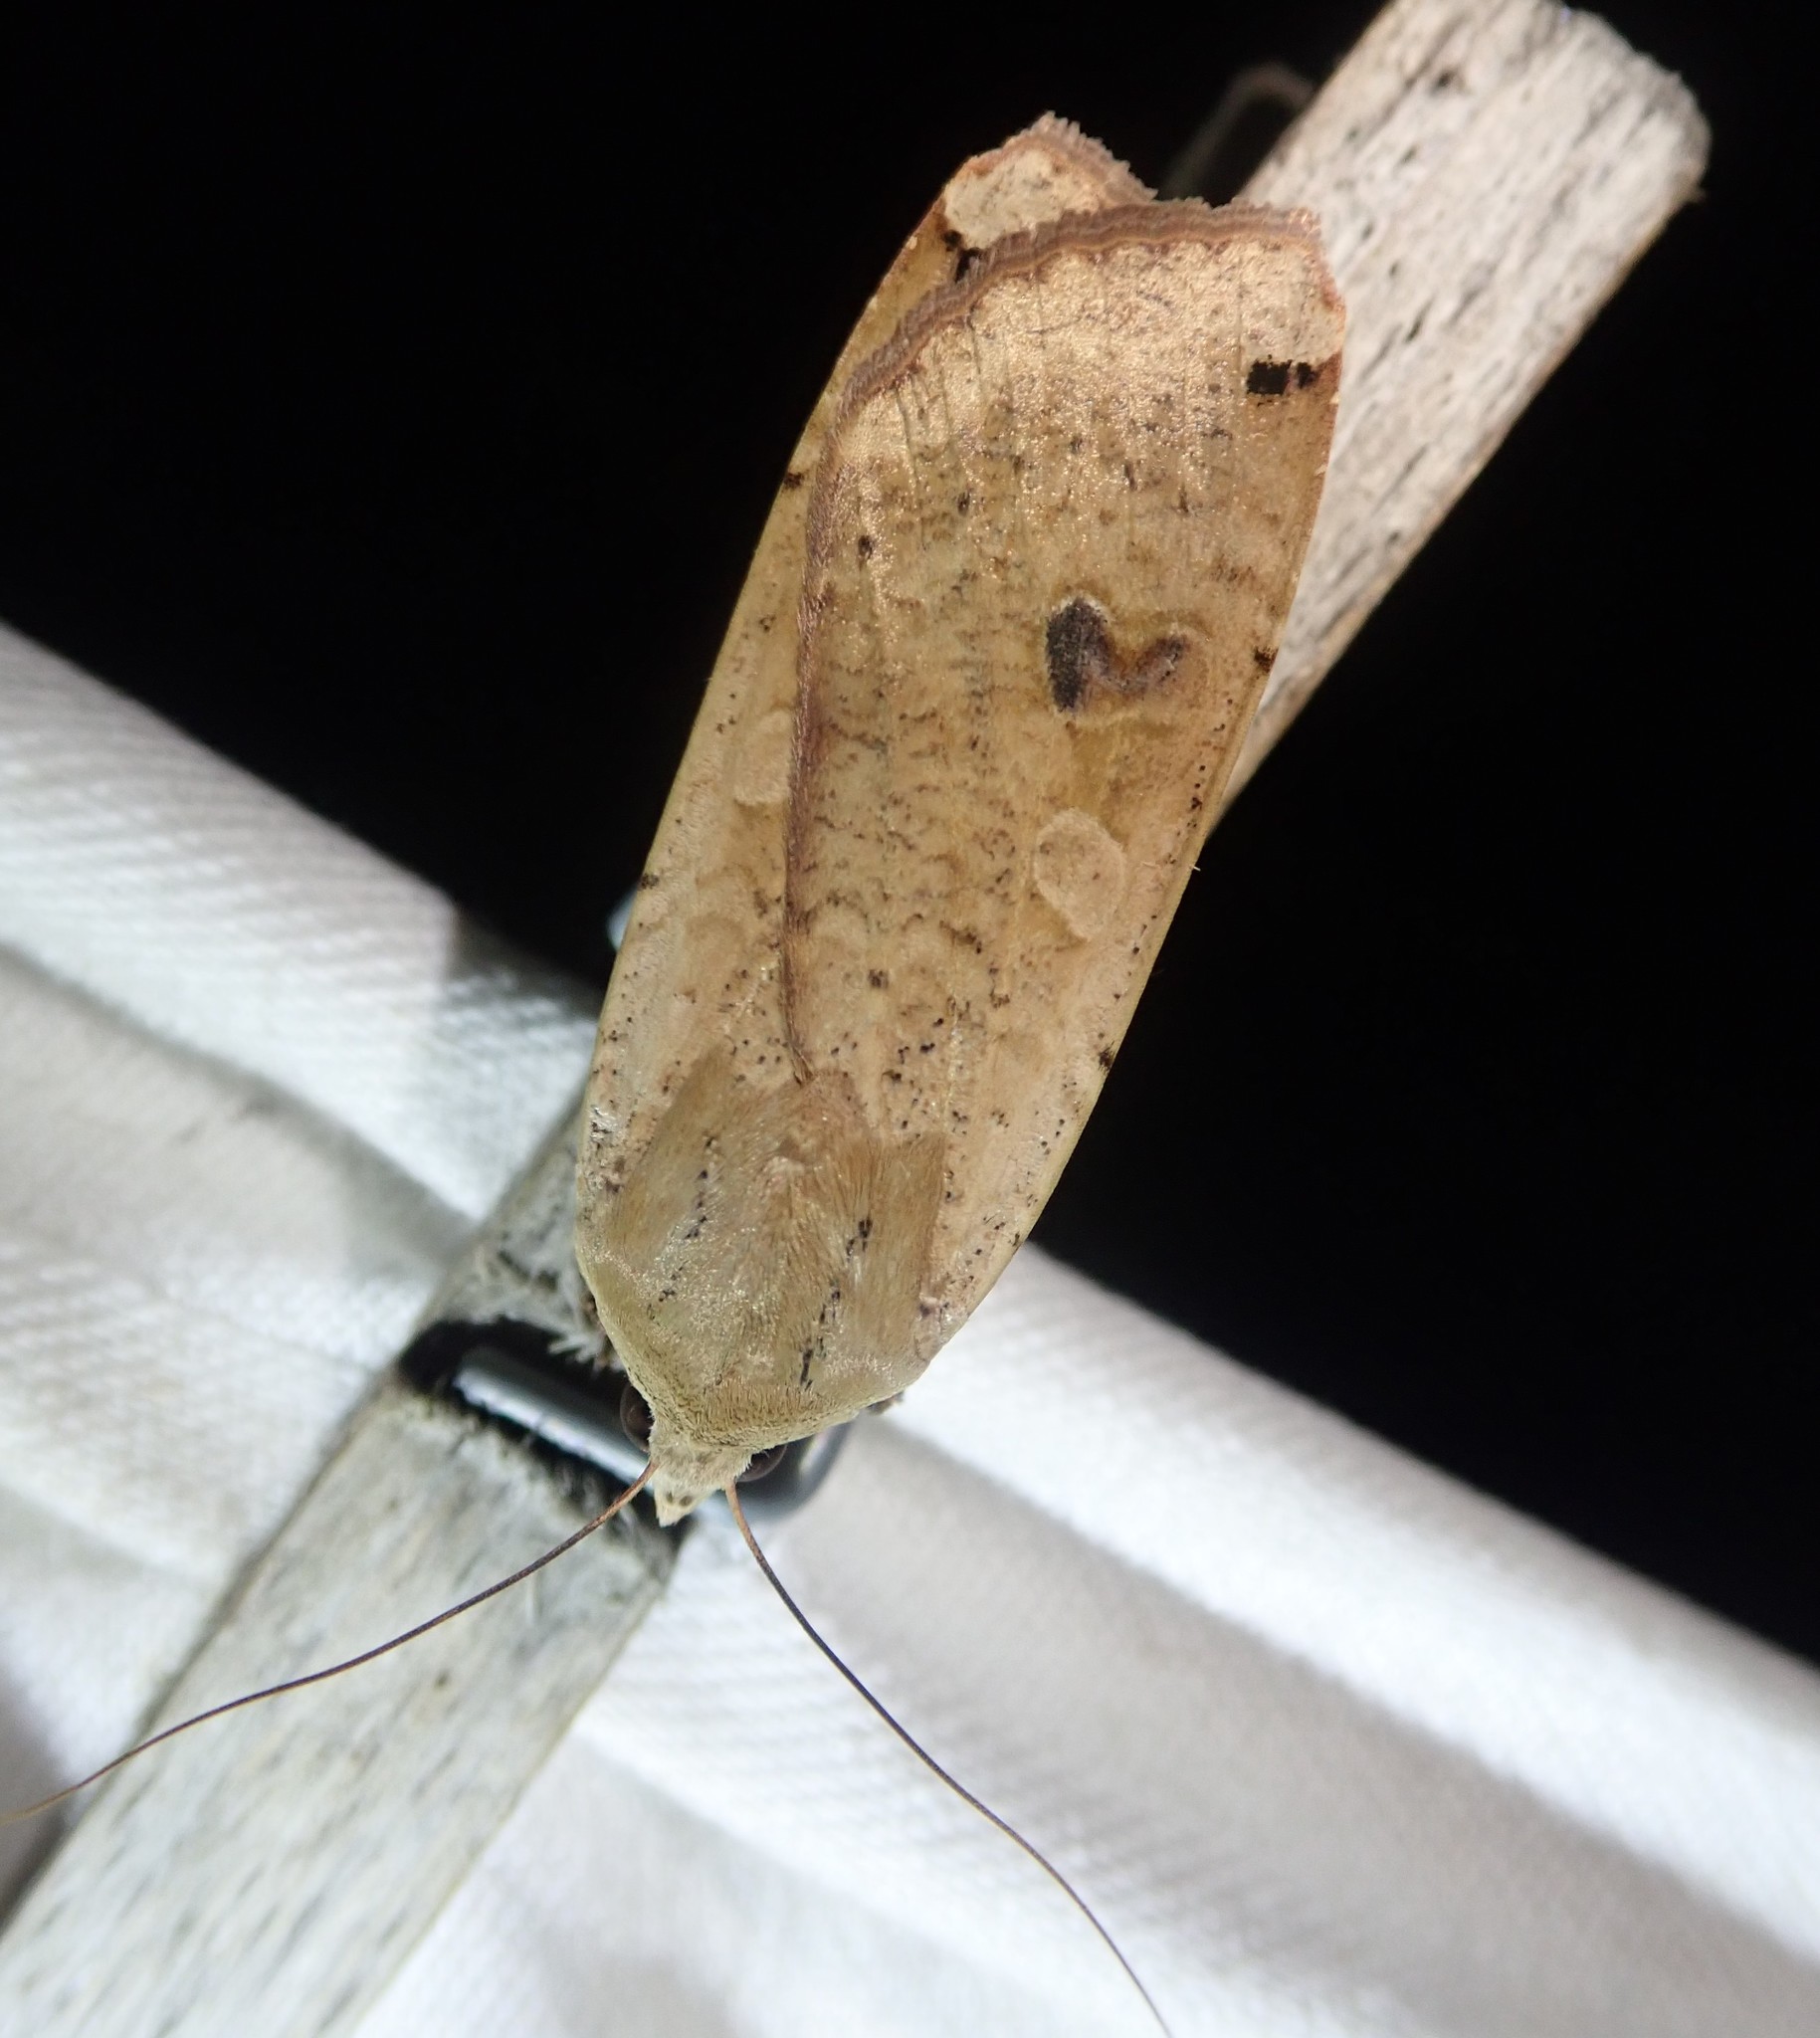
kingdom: Animalia
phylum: Arthropoda
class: Insecta
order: Lepidoptera
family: Noctuidae
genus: Noctua
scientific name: Noctua pronuba
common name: Large yellow underwing
